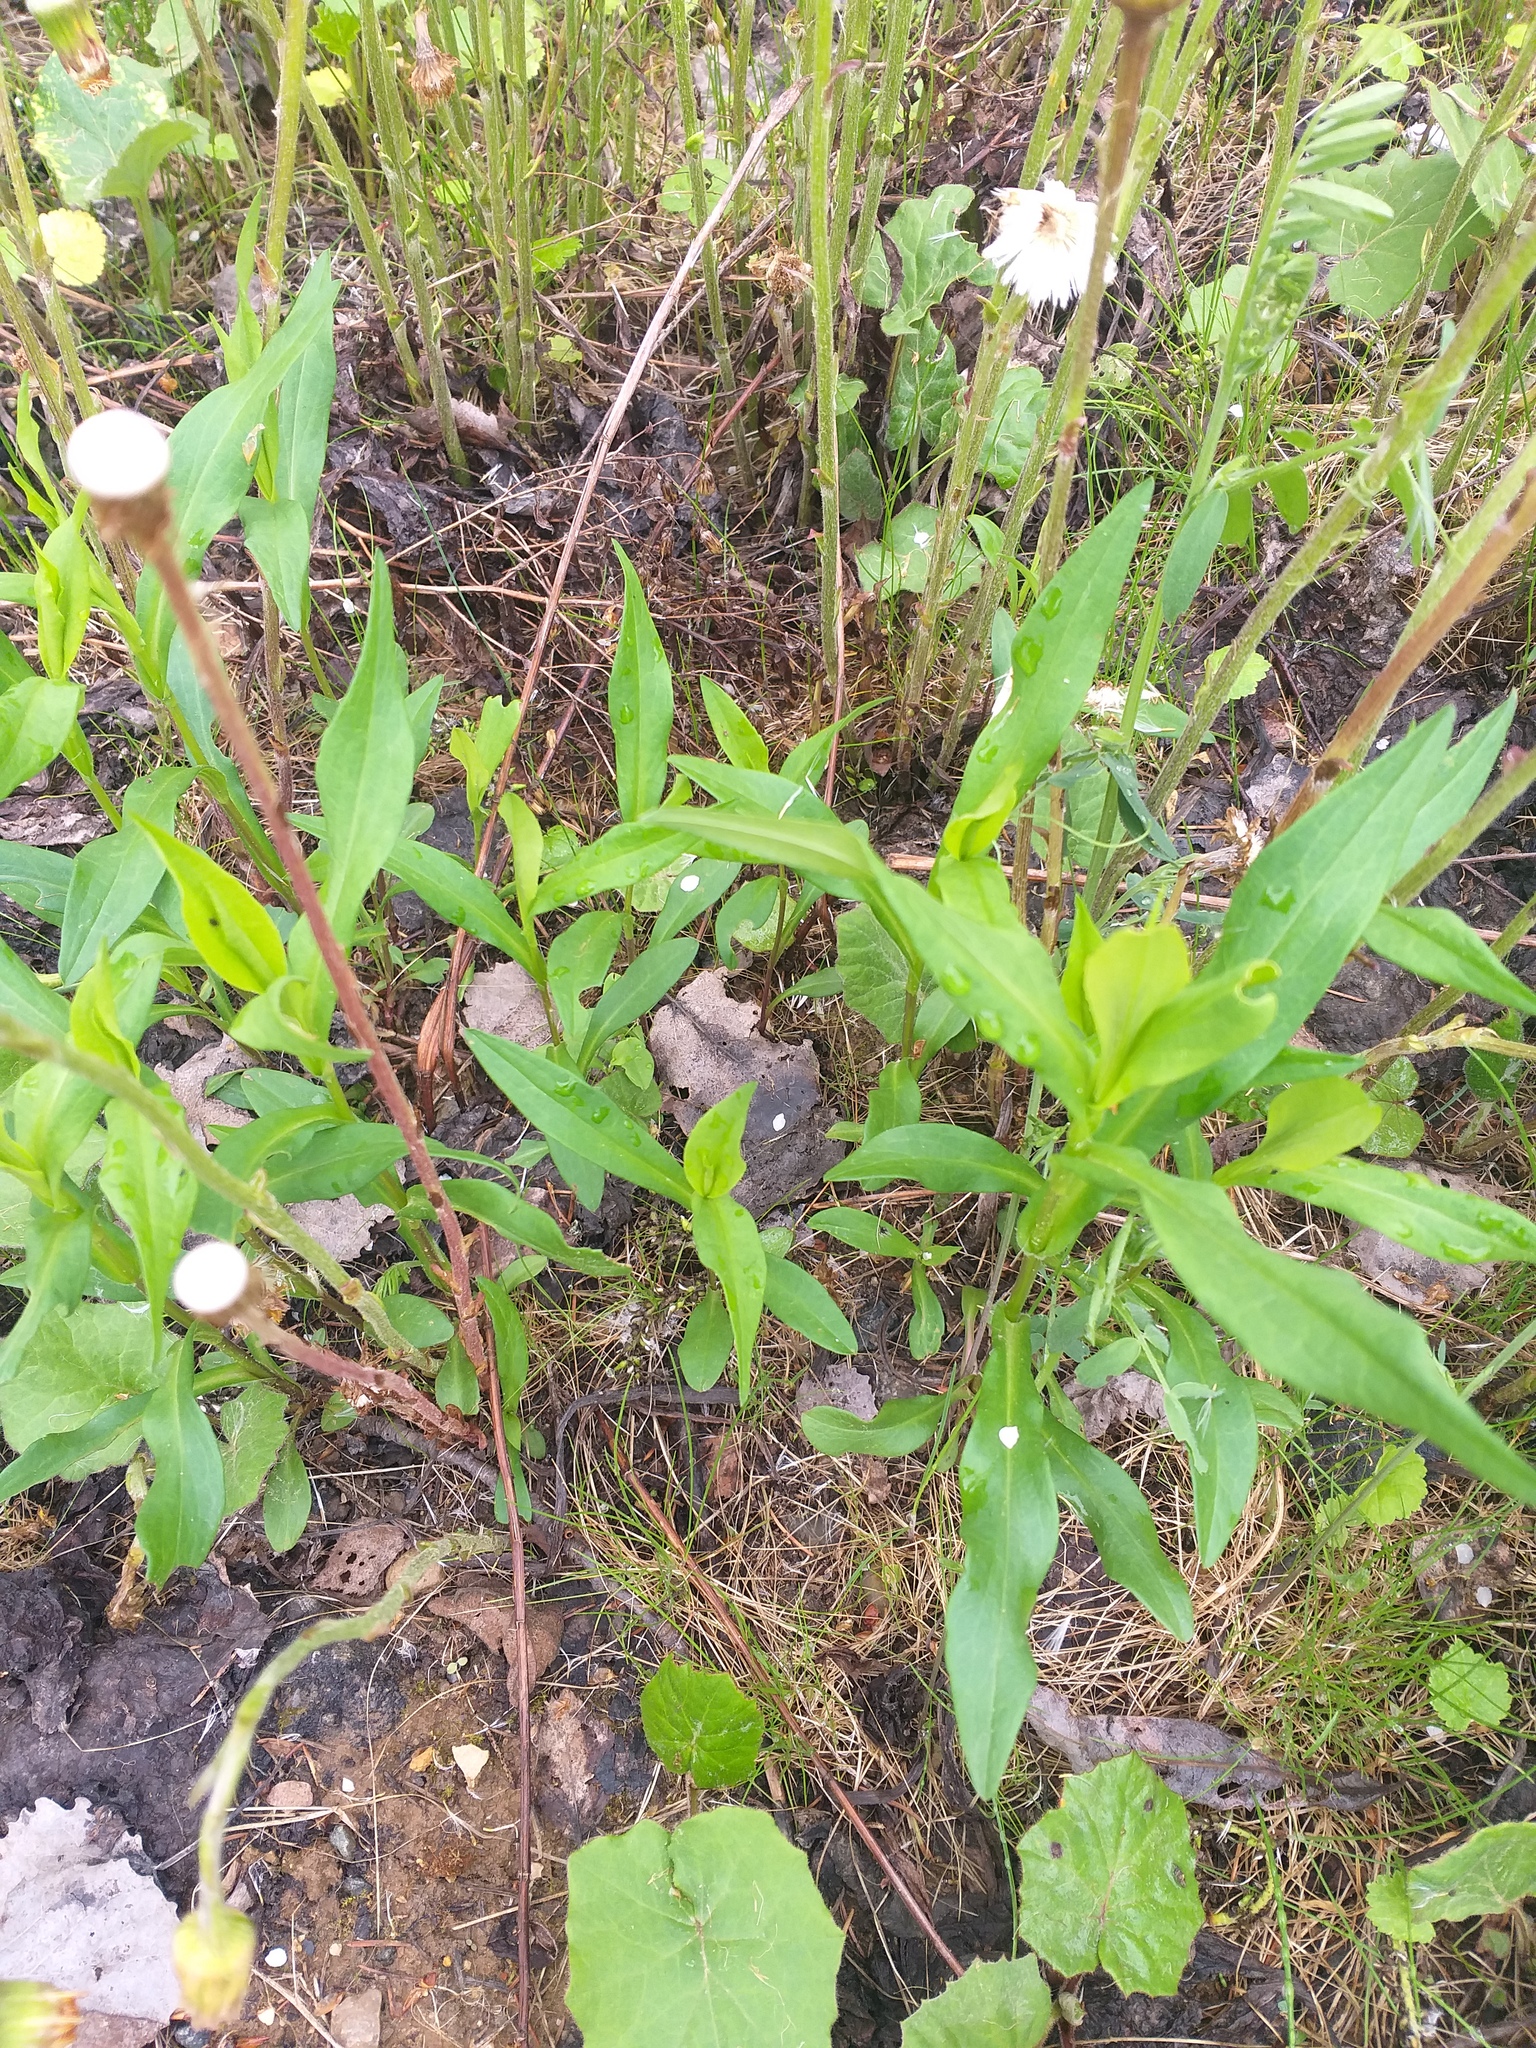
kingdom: Plantae
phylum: Tracheophyta
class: Magnoliopsida
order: Asterales
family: Asteraceae
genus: Symphyotrichum
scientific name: Symphyotrichum novi-belgii
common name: Michaelmas daisy
